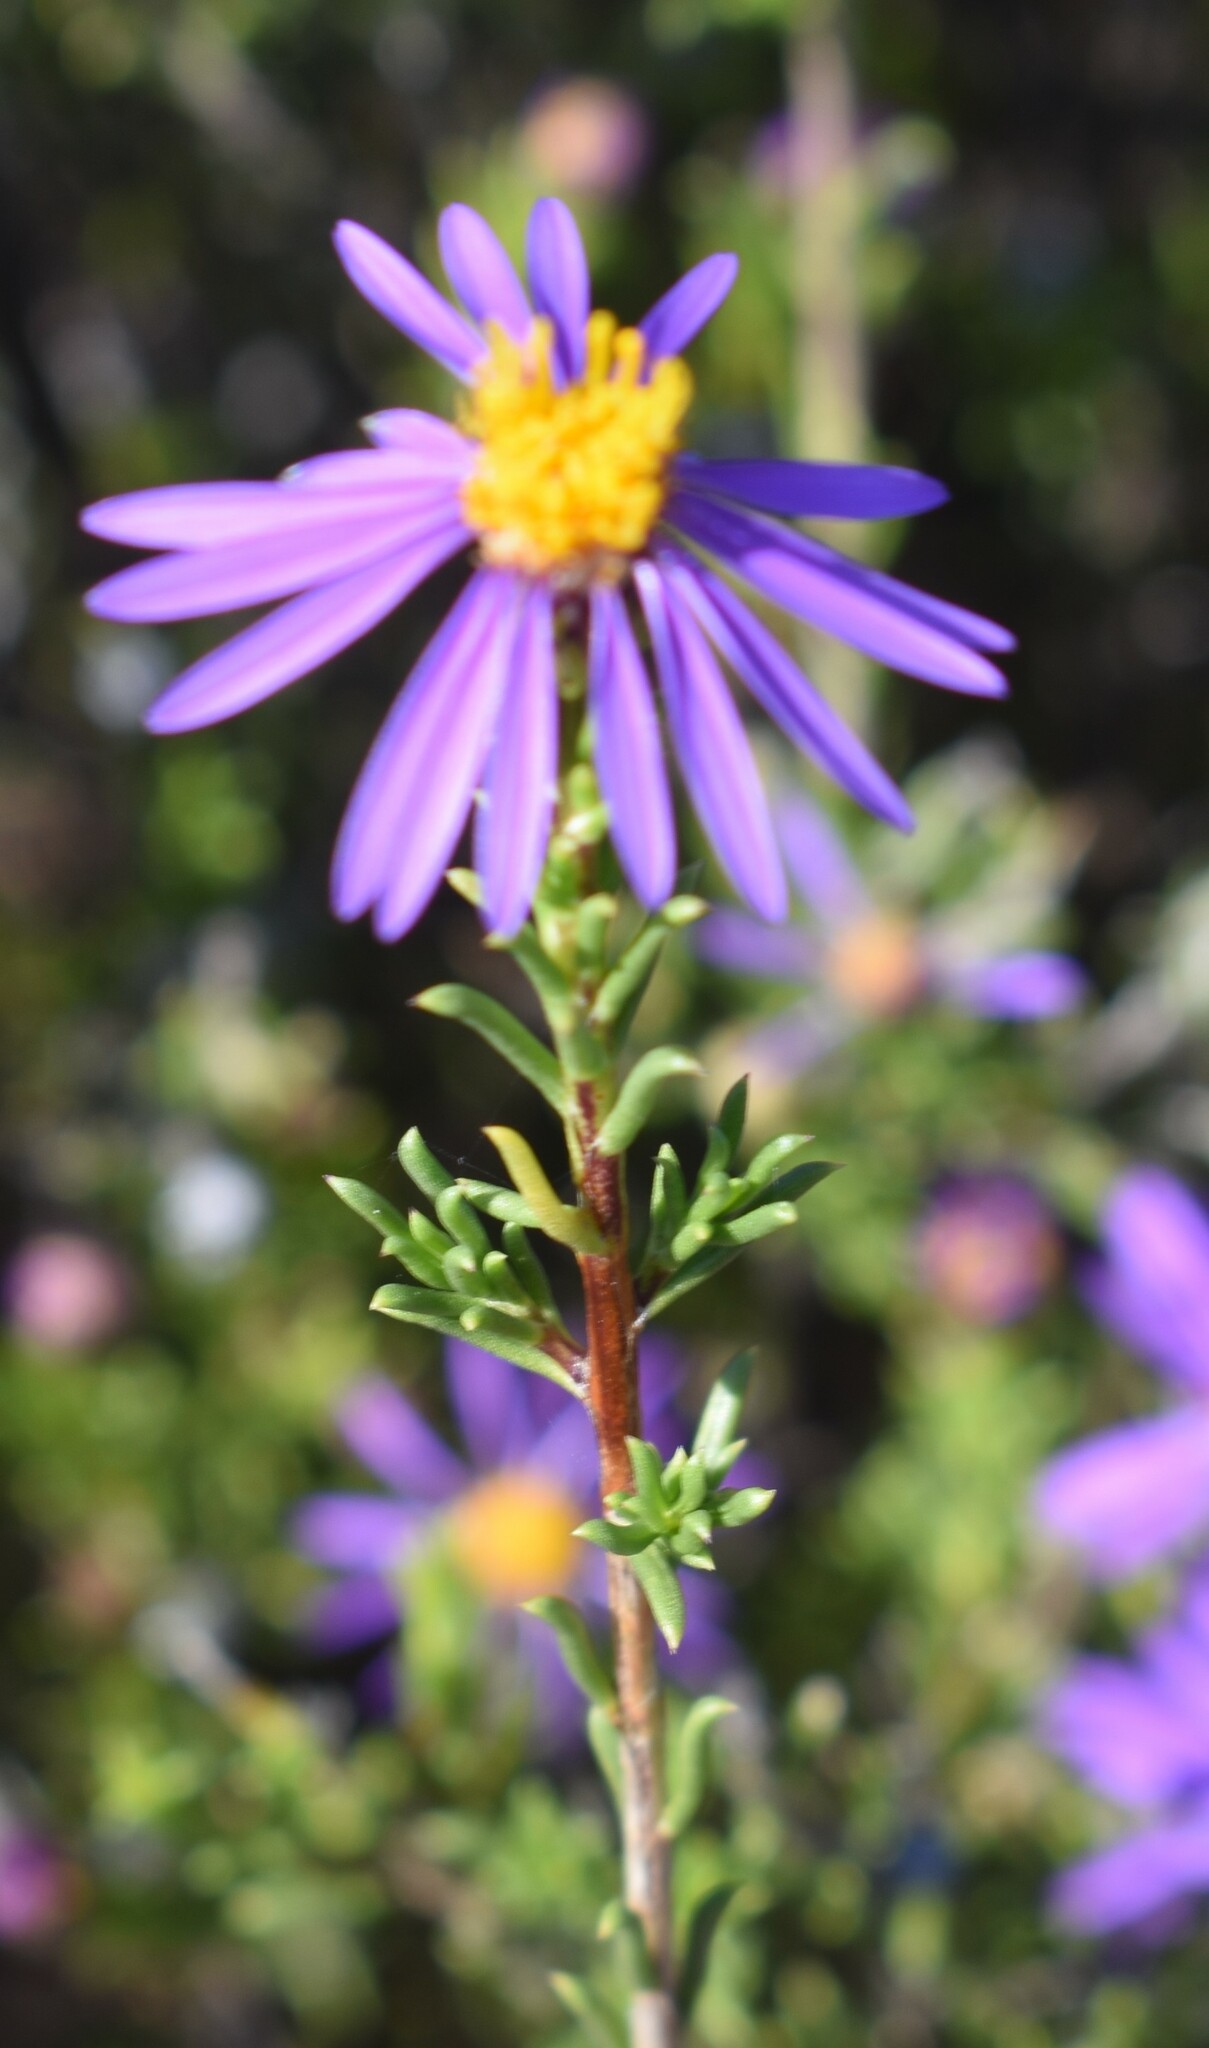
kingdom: Plantae
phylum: Tracheophyta
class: Magnoliopsida
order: Asterales
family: Asteraceae
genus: Felicia
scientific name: Felicia filifolia
